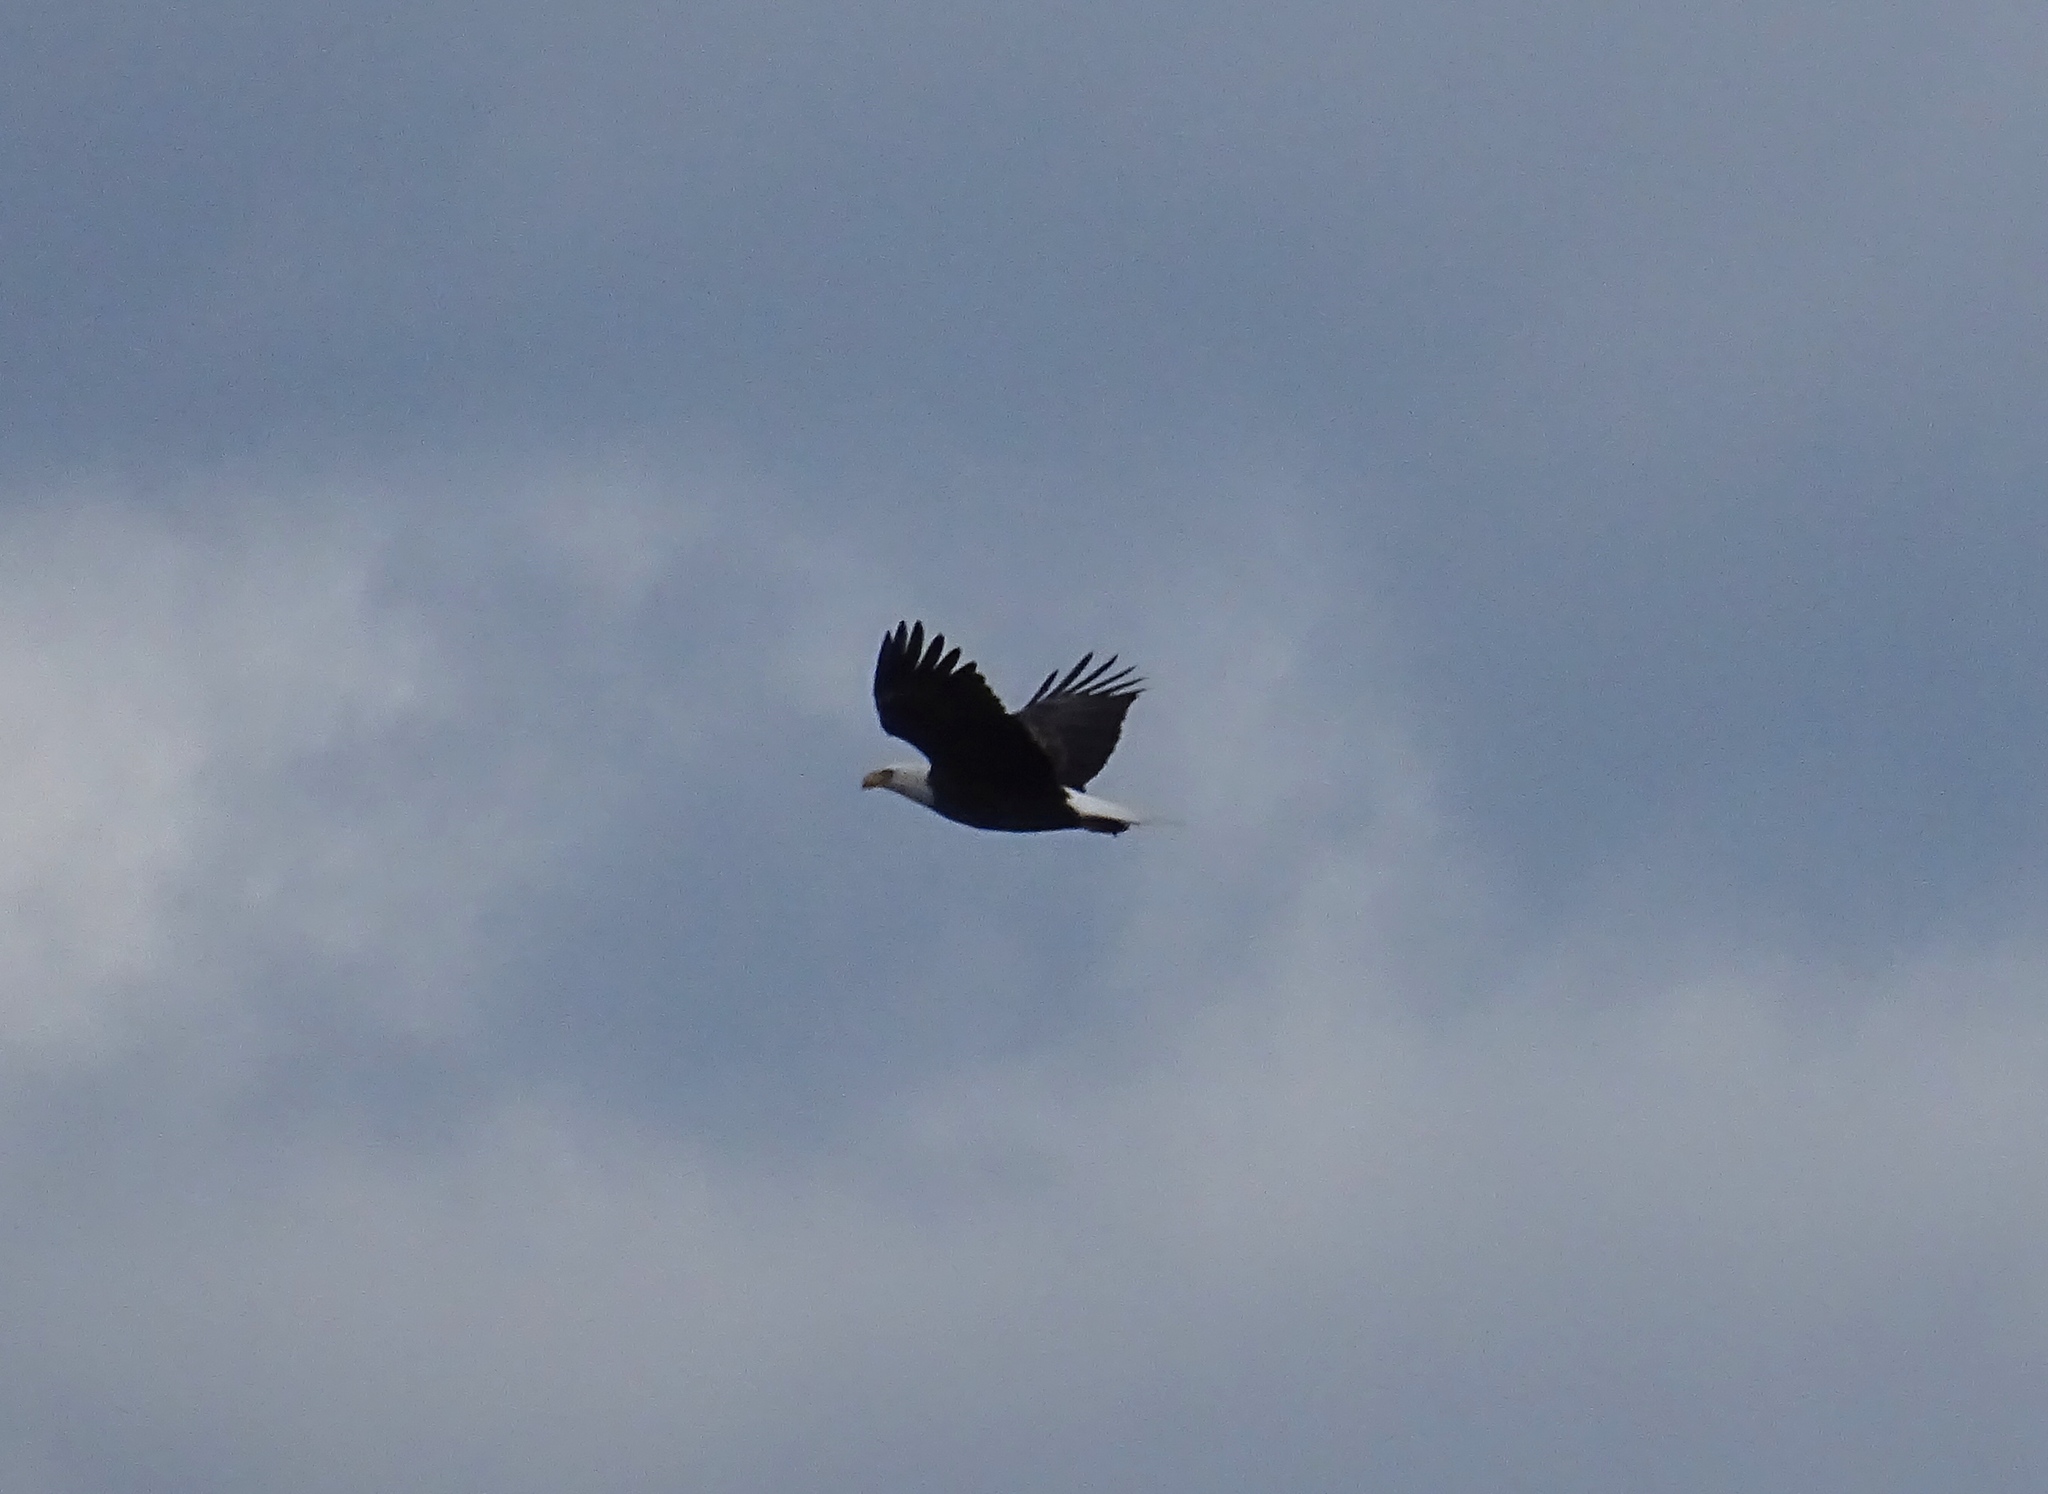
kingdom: Animalia
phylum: Chordata
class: Aves
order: Accipitriformes
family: Accipitridae
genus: Haliaeetus
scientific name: Haliaeetus leucocephalus
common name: Bald eagle
